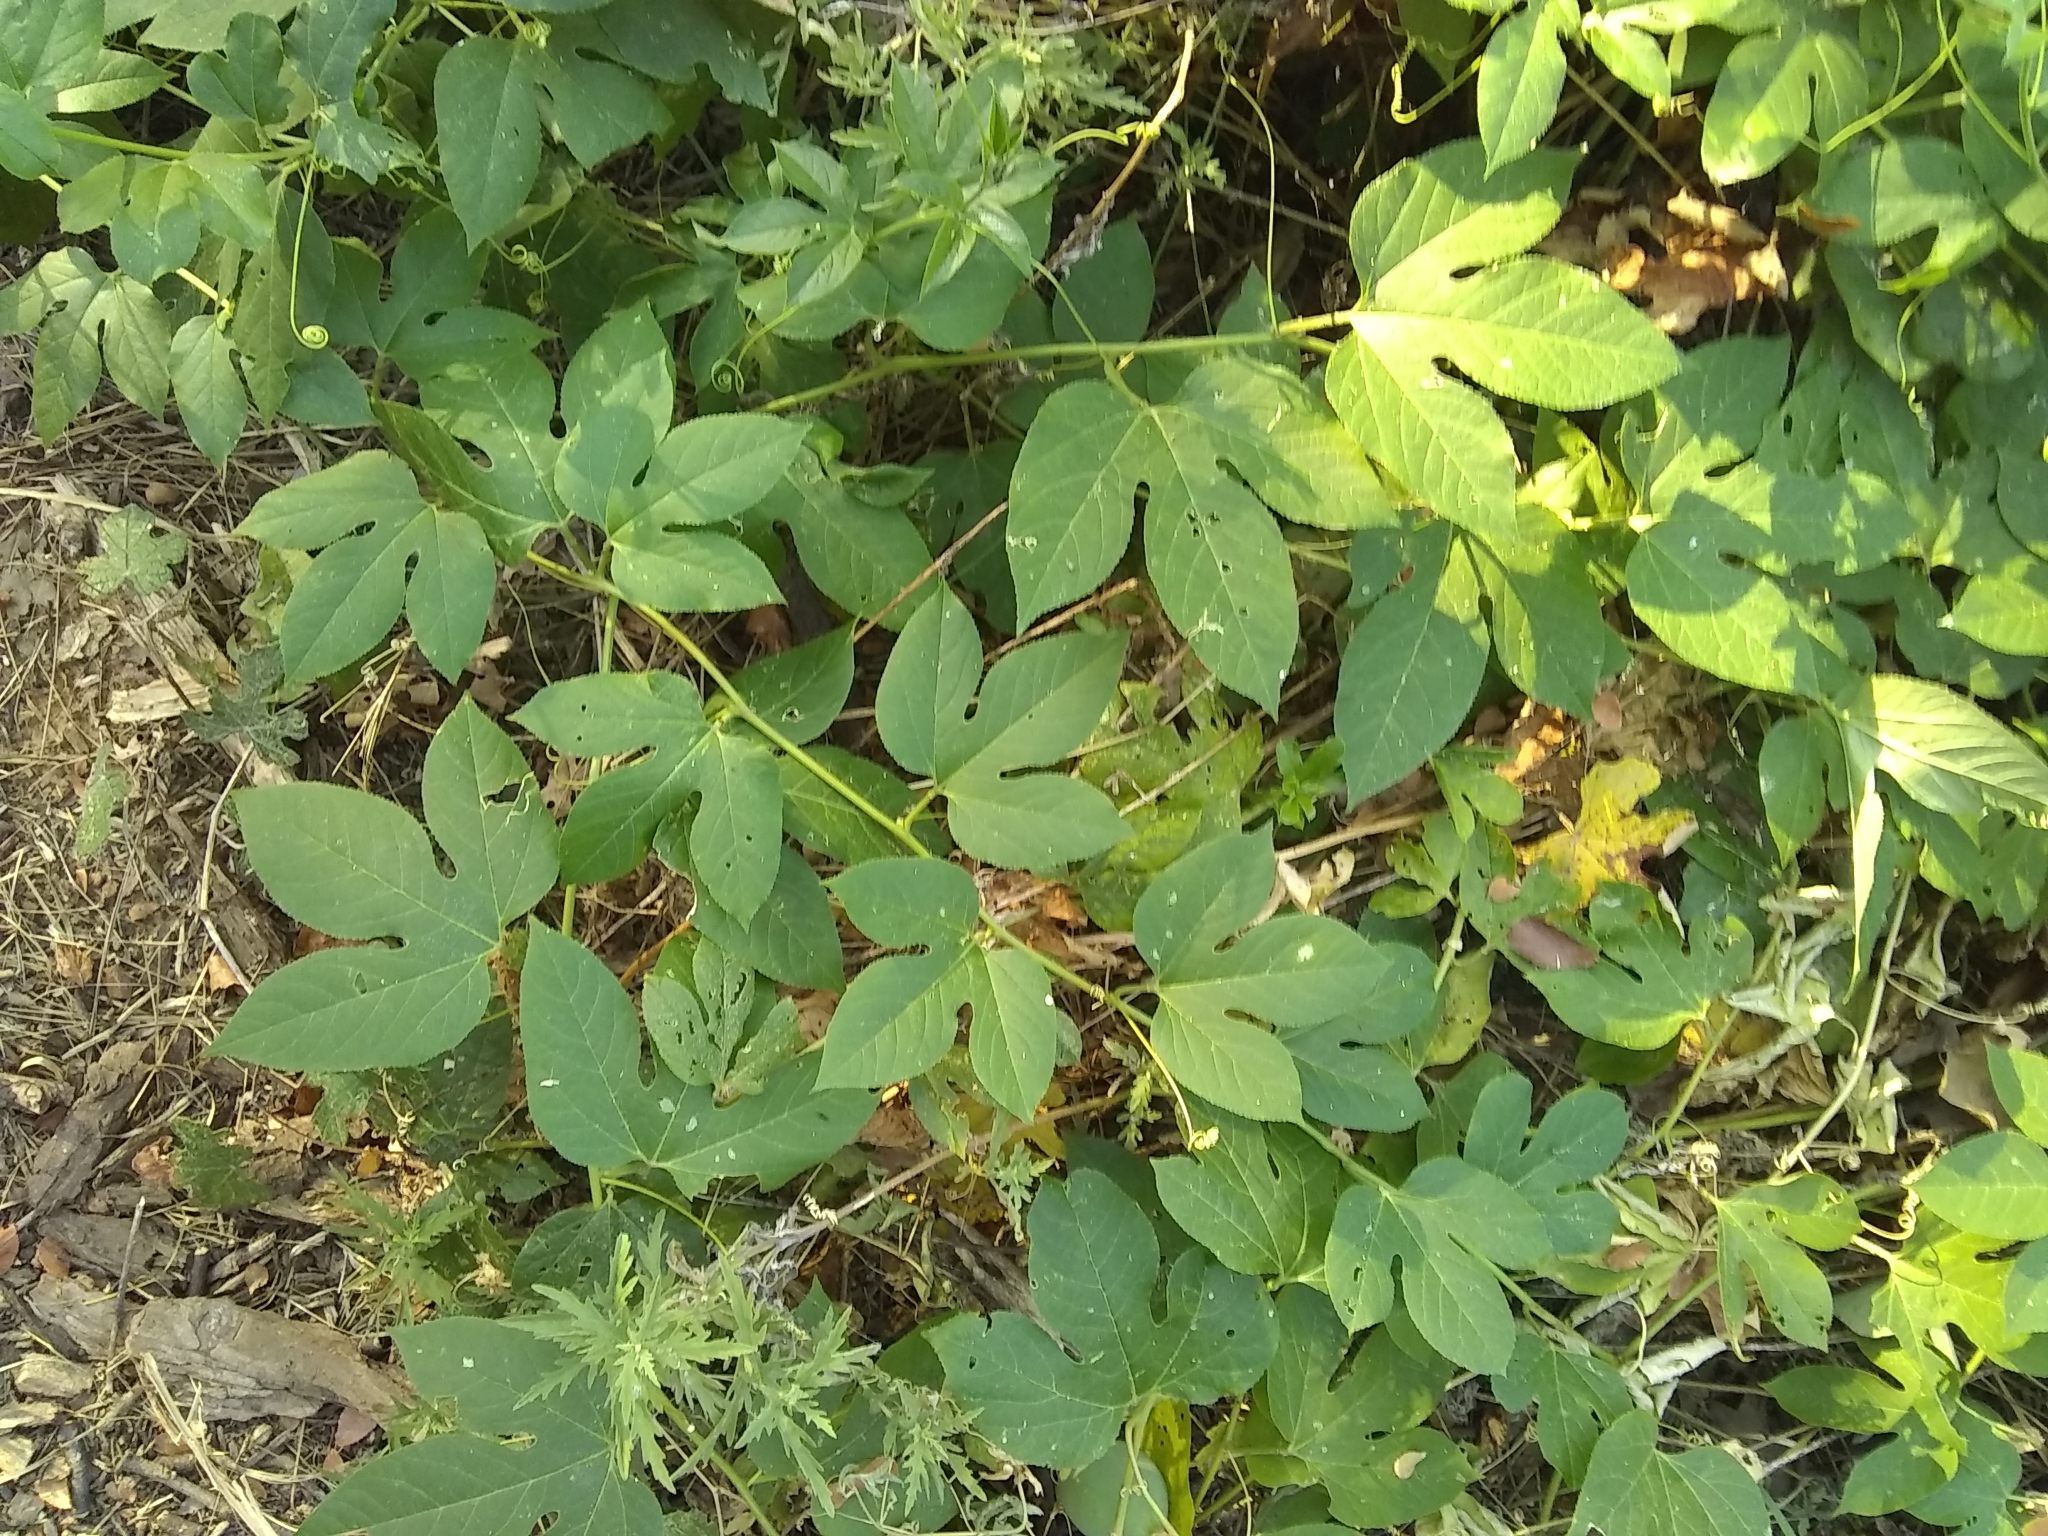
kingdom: Plantae
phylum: Tracheophyta
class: Magnoliopsida
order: Malpighiales
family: Passifloraceae
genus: Passiflora
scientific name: Passiflora incarnata
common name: Apricot-vine
